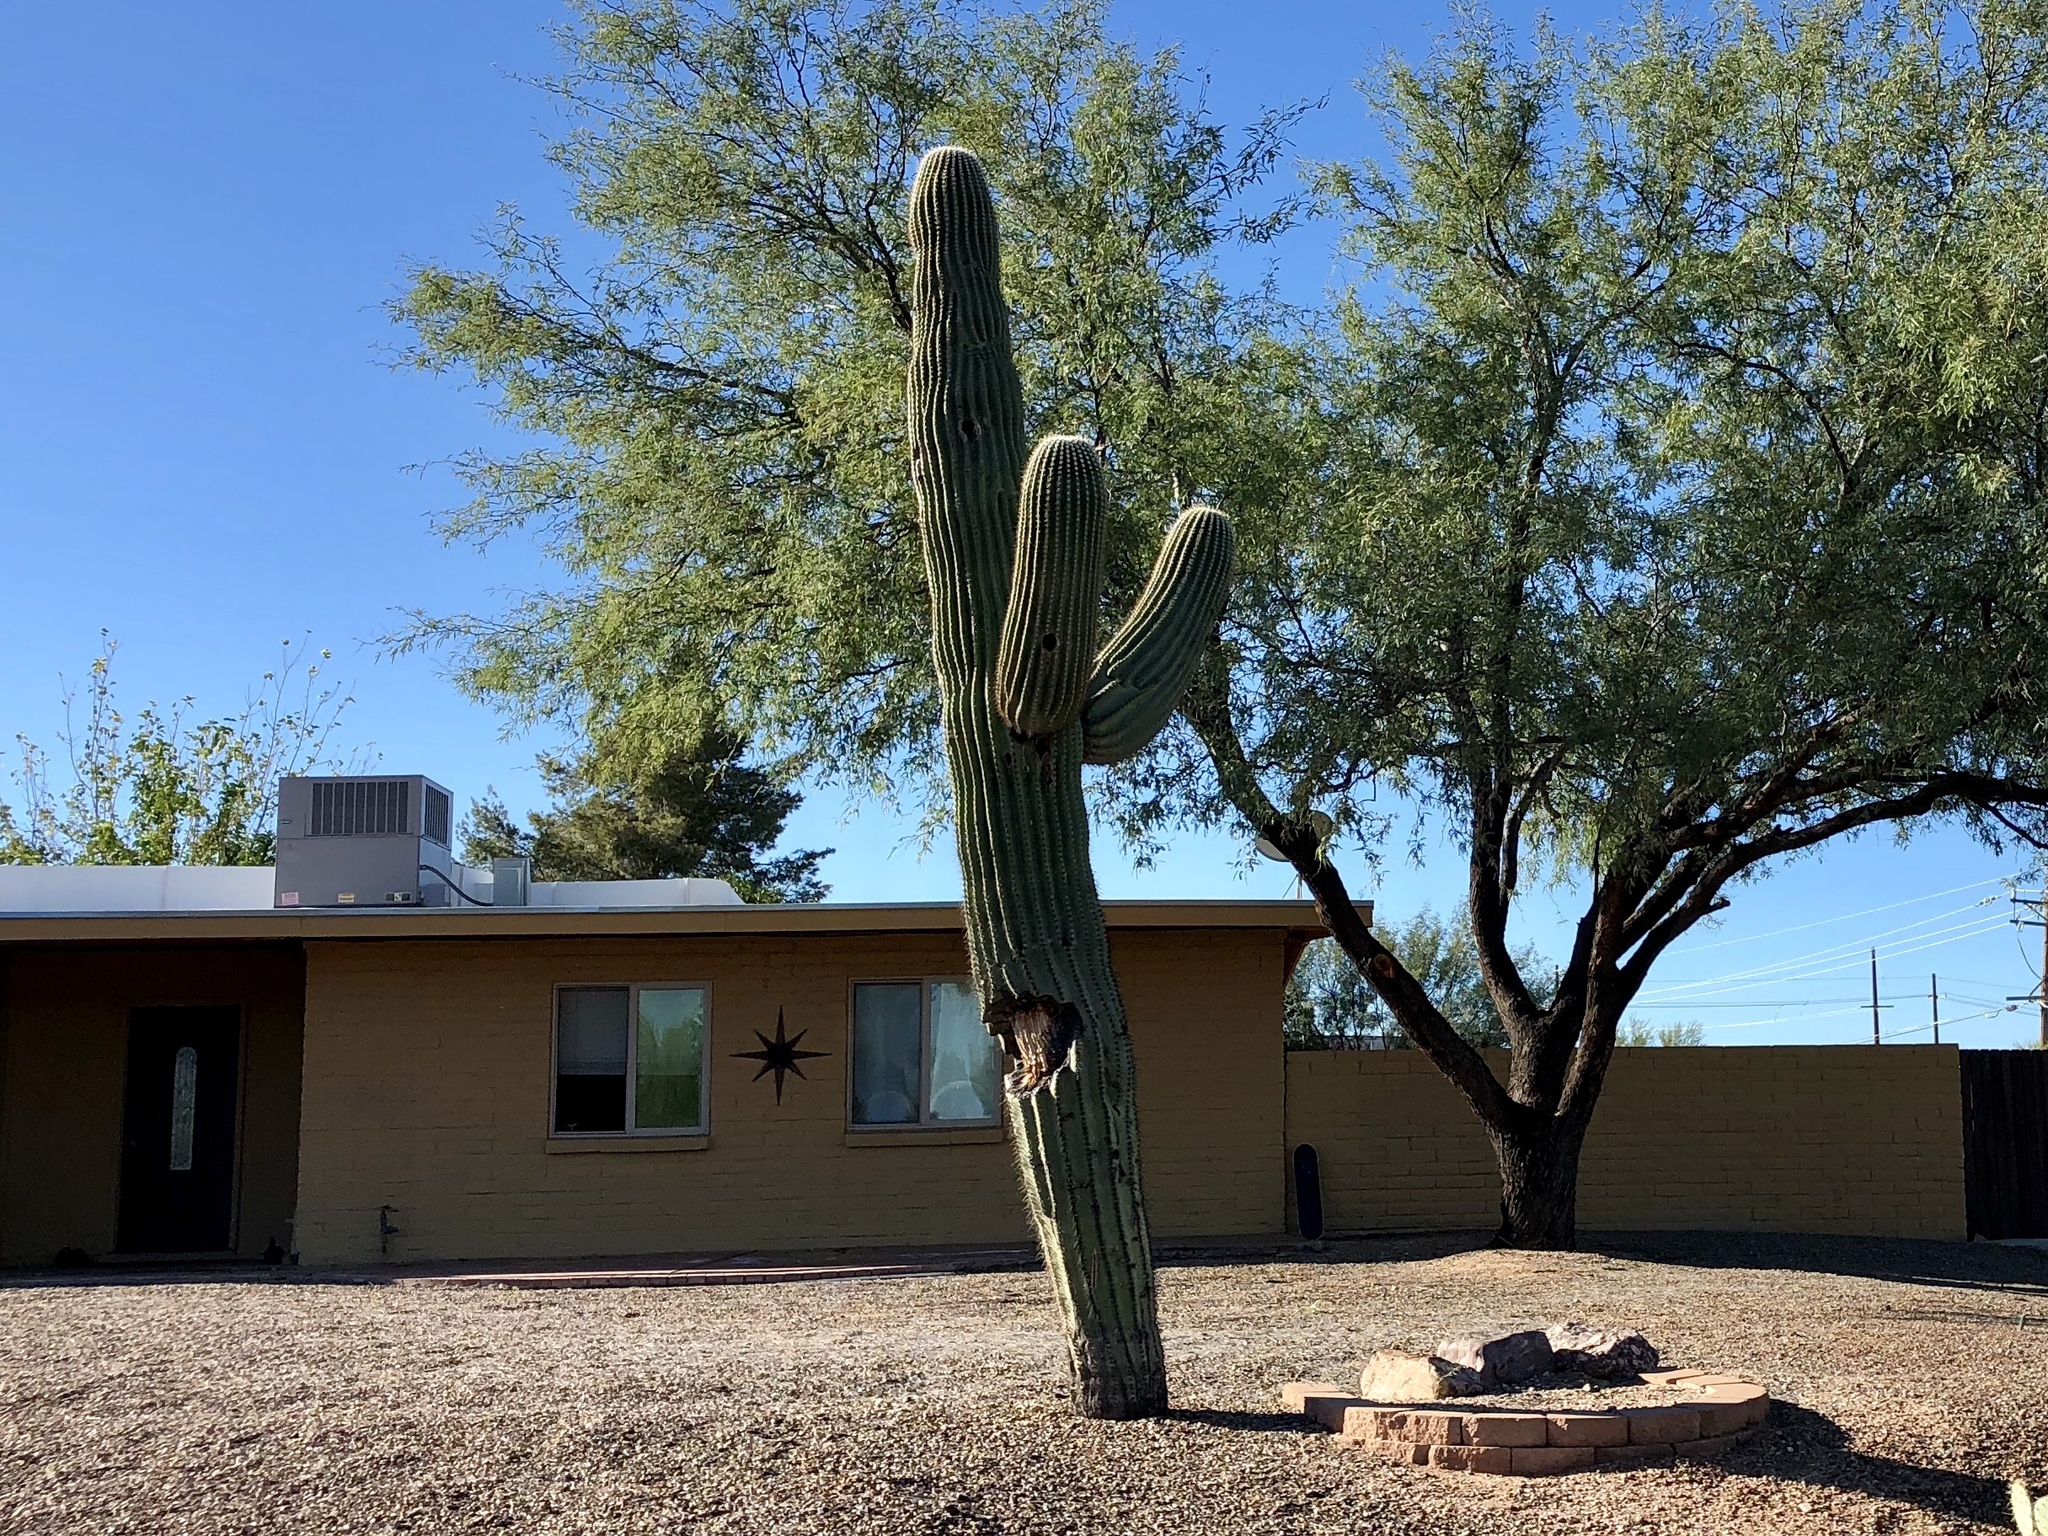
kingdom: Plantae
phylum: Tracheophyta
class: Magnoliopsida
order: Caryophyllales
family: Cactaceae
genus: Carnegiea
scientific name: Carnegiea gigantea
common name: Saguaro
